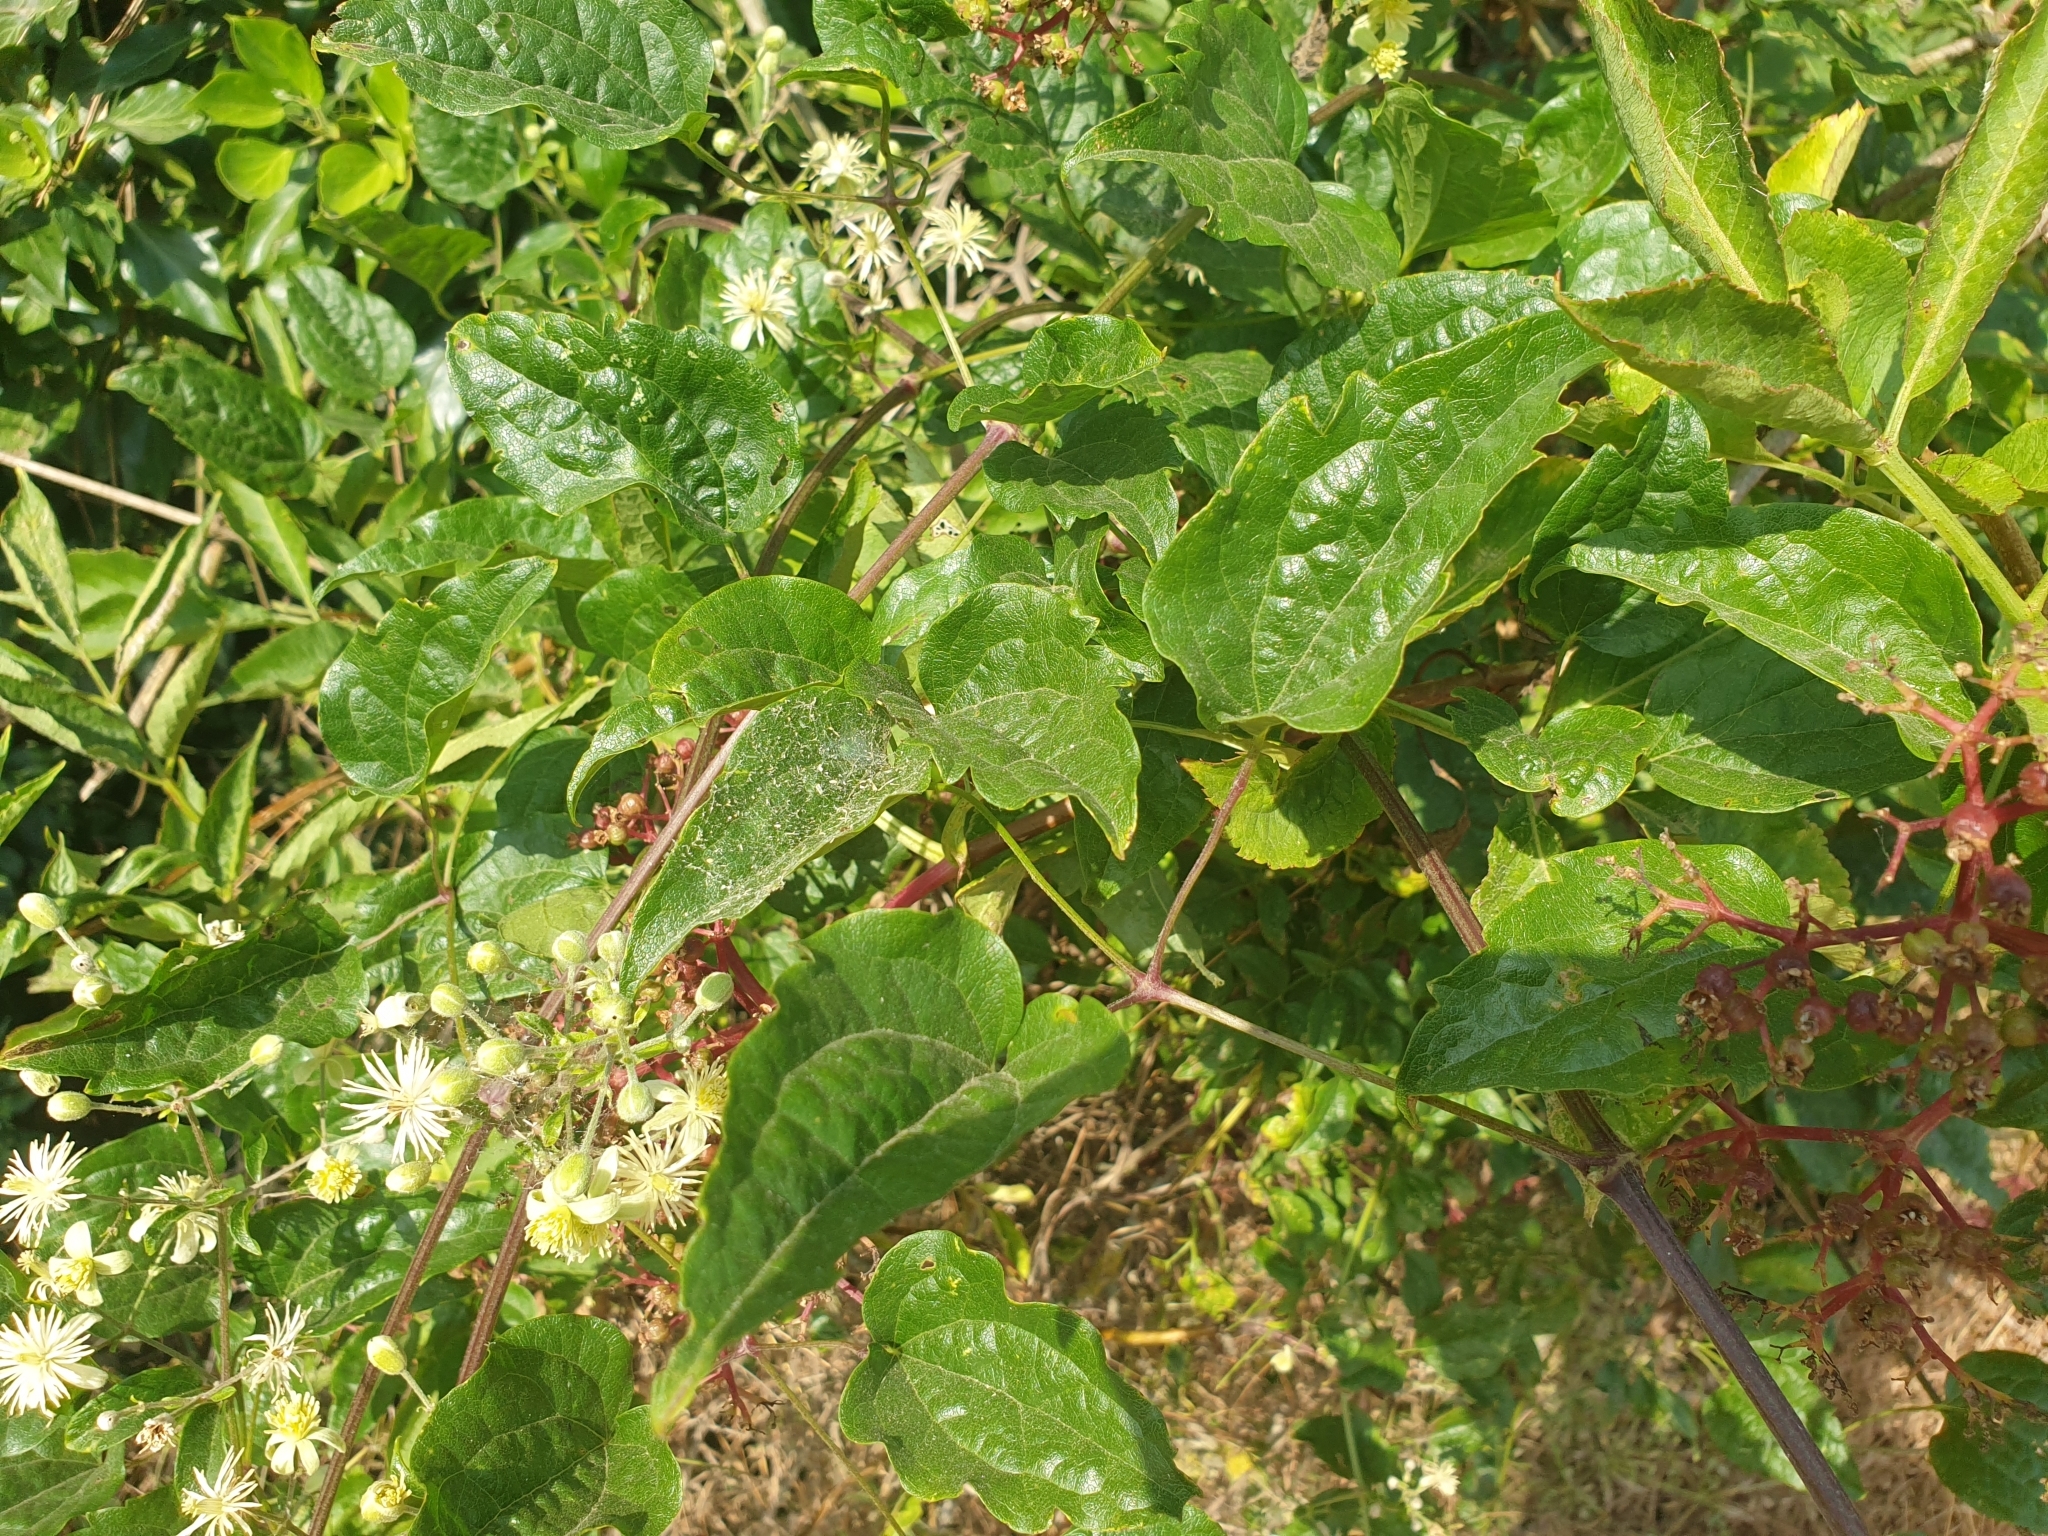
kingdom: Plantae
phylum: Tracheophyta
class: Magnoliopsida
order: Ranunculales
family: Ranunculaceae
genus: Clematis
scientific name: Clematis vitalba
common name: Evergreen clematis
